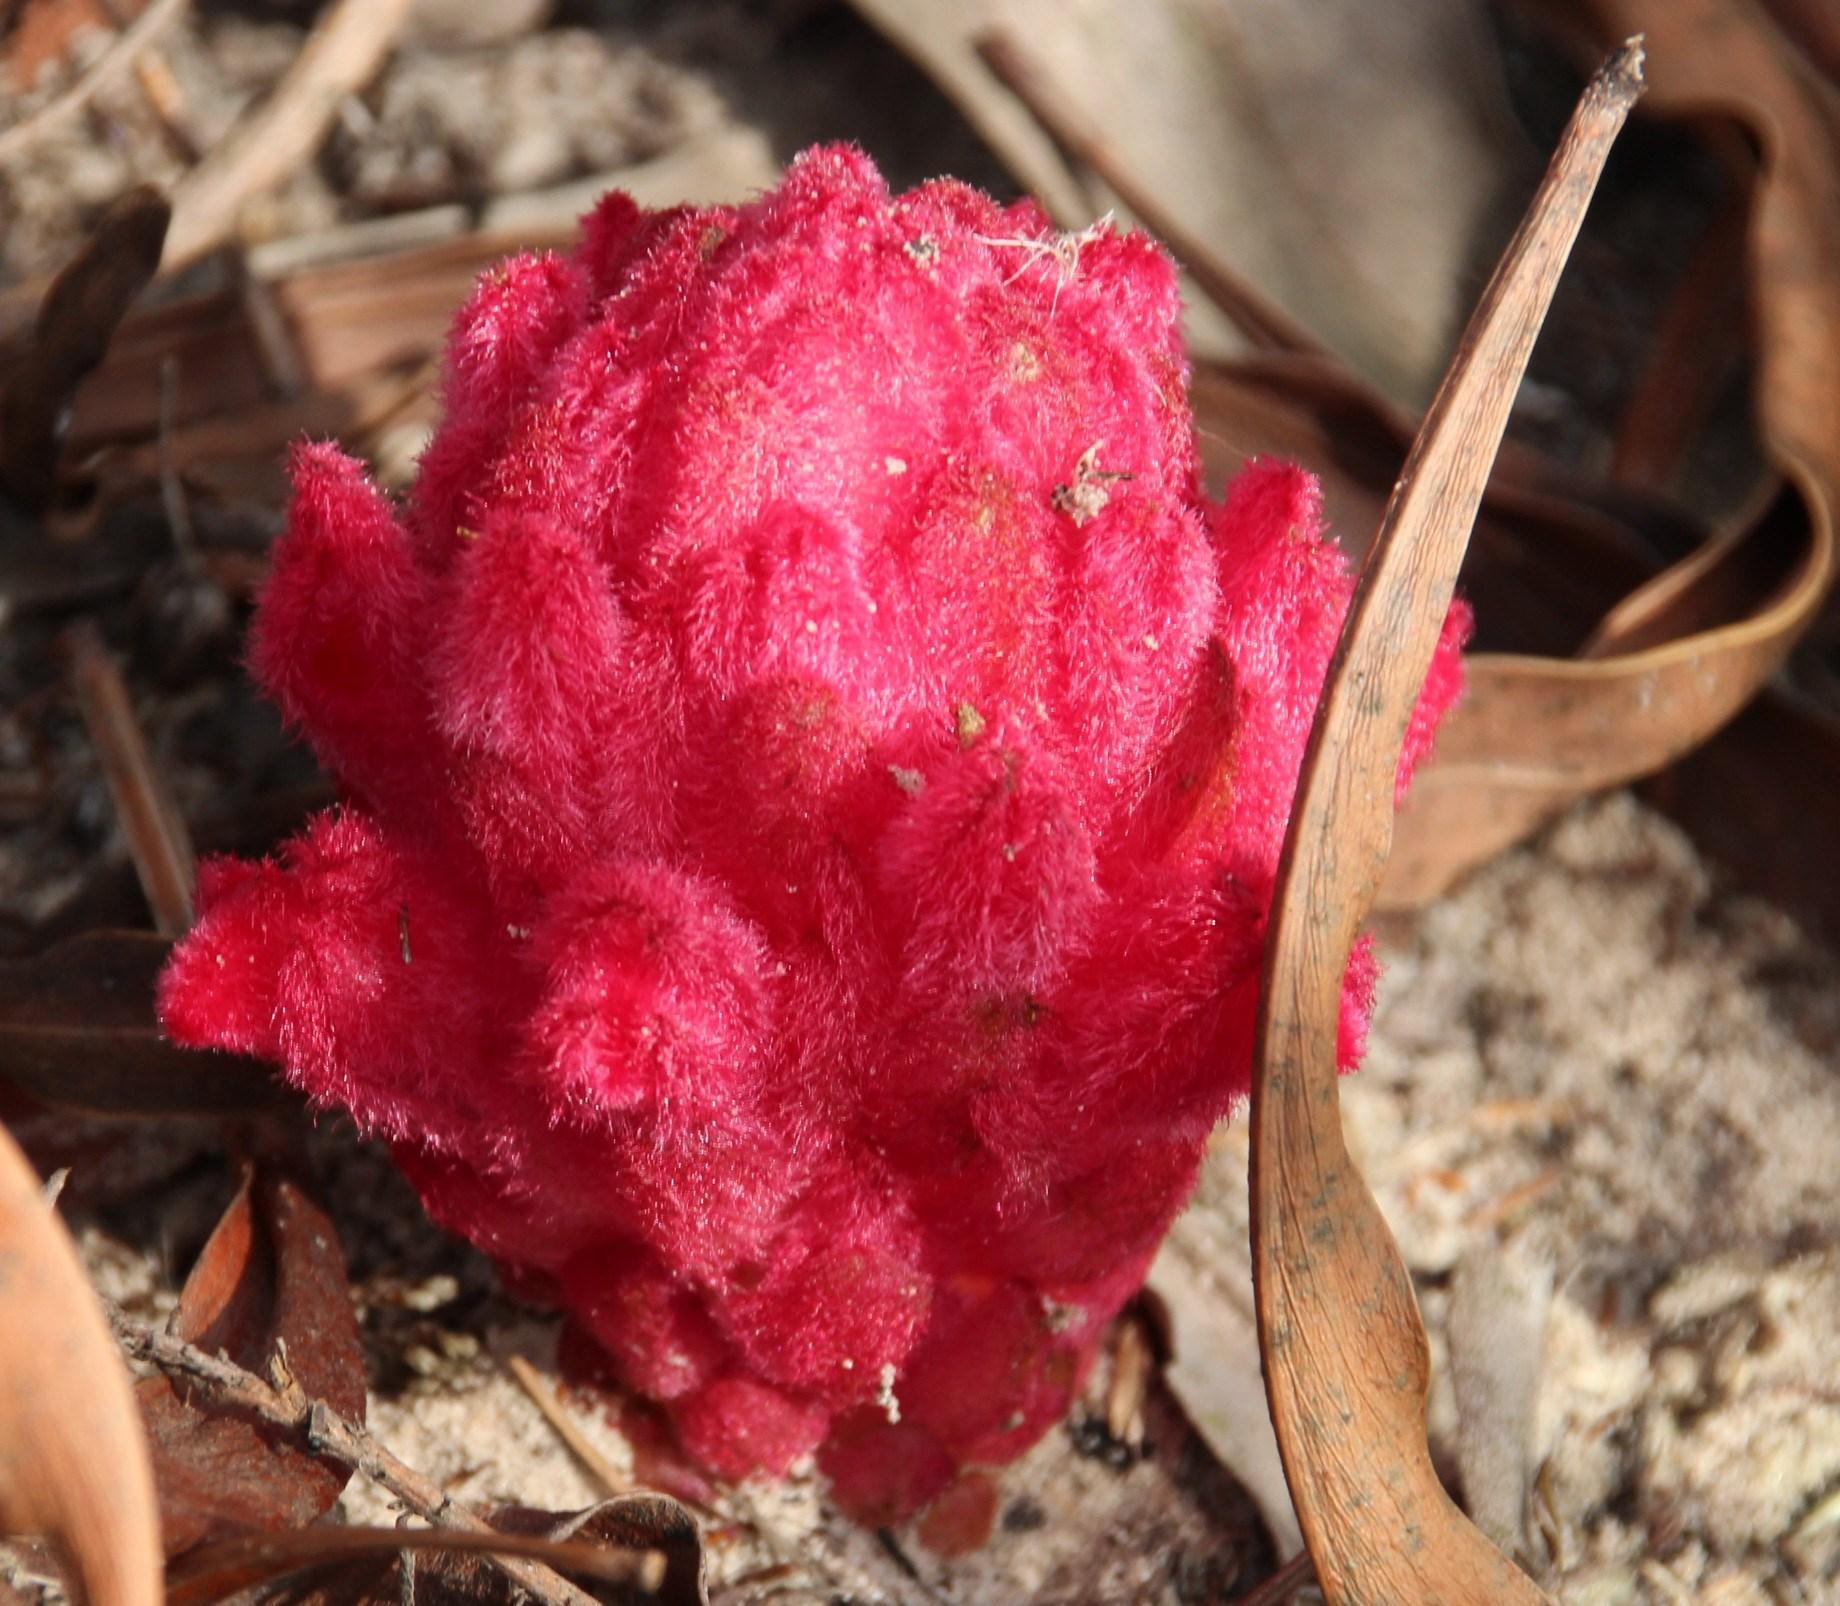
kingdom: Plantae
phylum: Tracheophyta
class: Magnoliopsida
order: Lamiales
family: Orobanchaceae
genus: Hyobanche
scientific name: Hyobanche sanguinea
